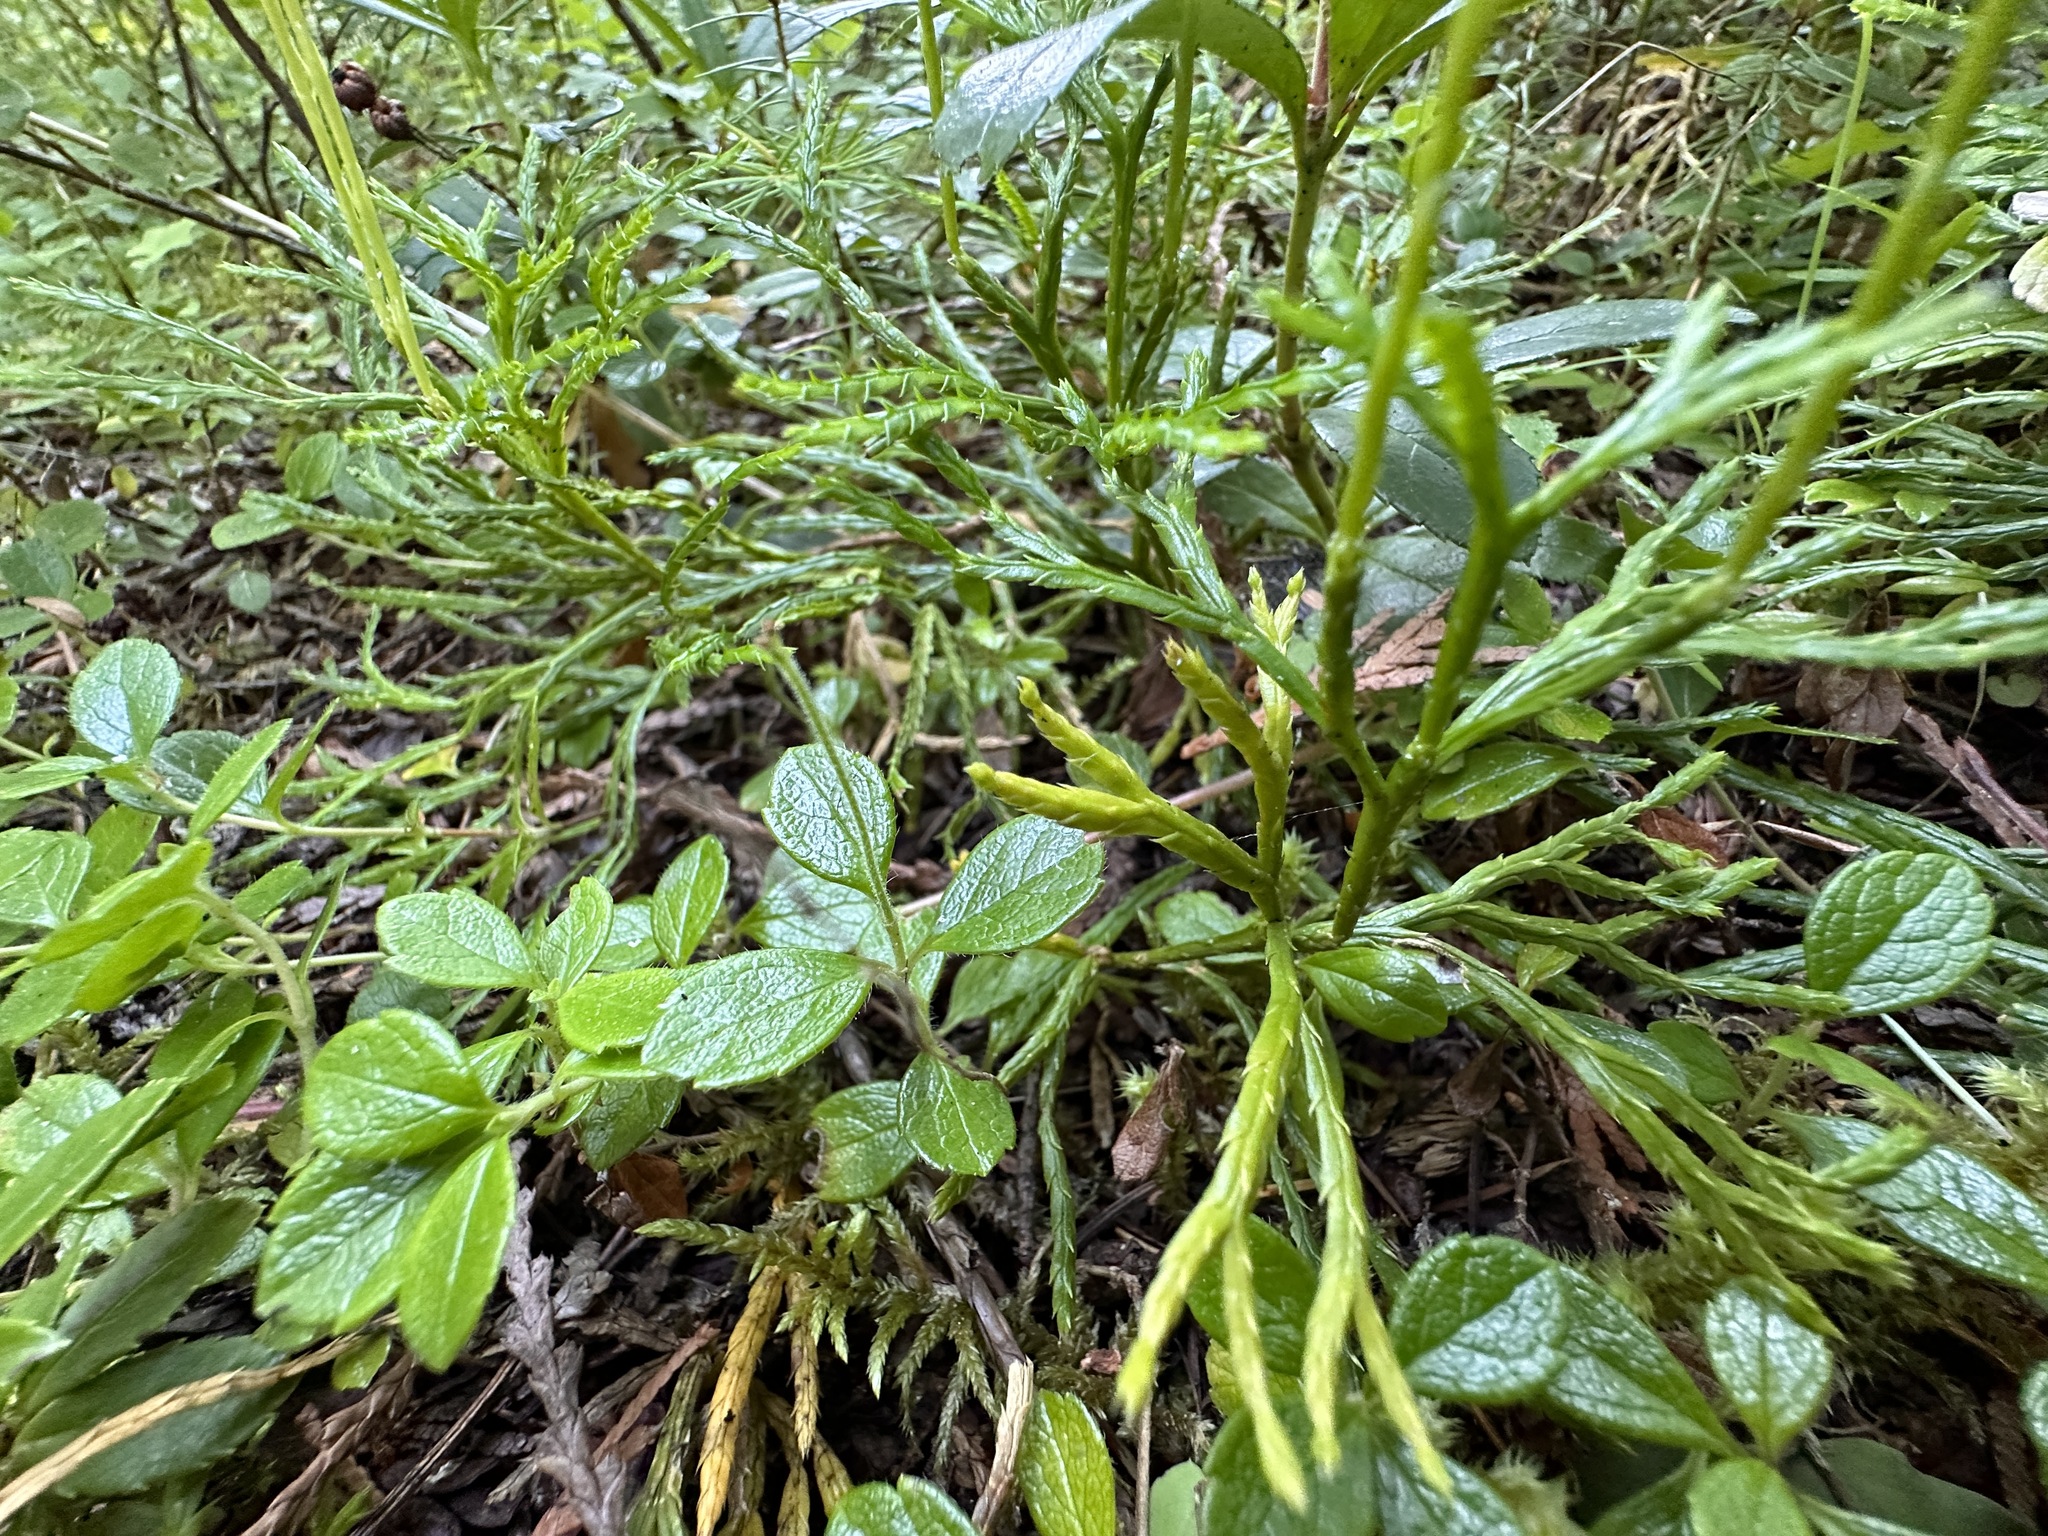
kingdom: Plantae
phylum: Tracheophyta
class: Lycopodiopsida
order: Lycopodiales
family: Lycopodiaceae
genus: Diphasiastrum
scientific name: Diphasiastrum complanatum
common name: Northern running-pine
